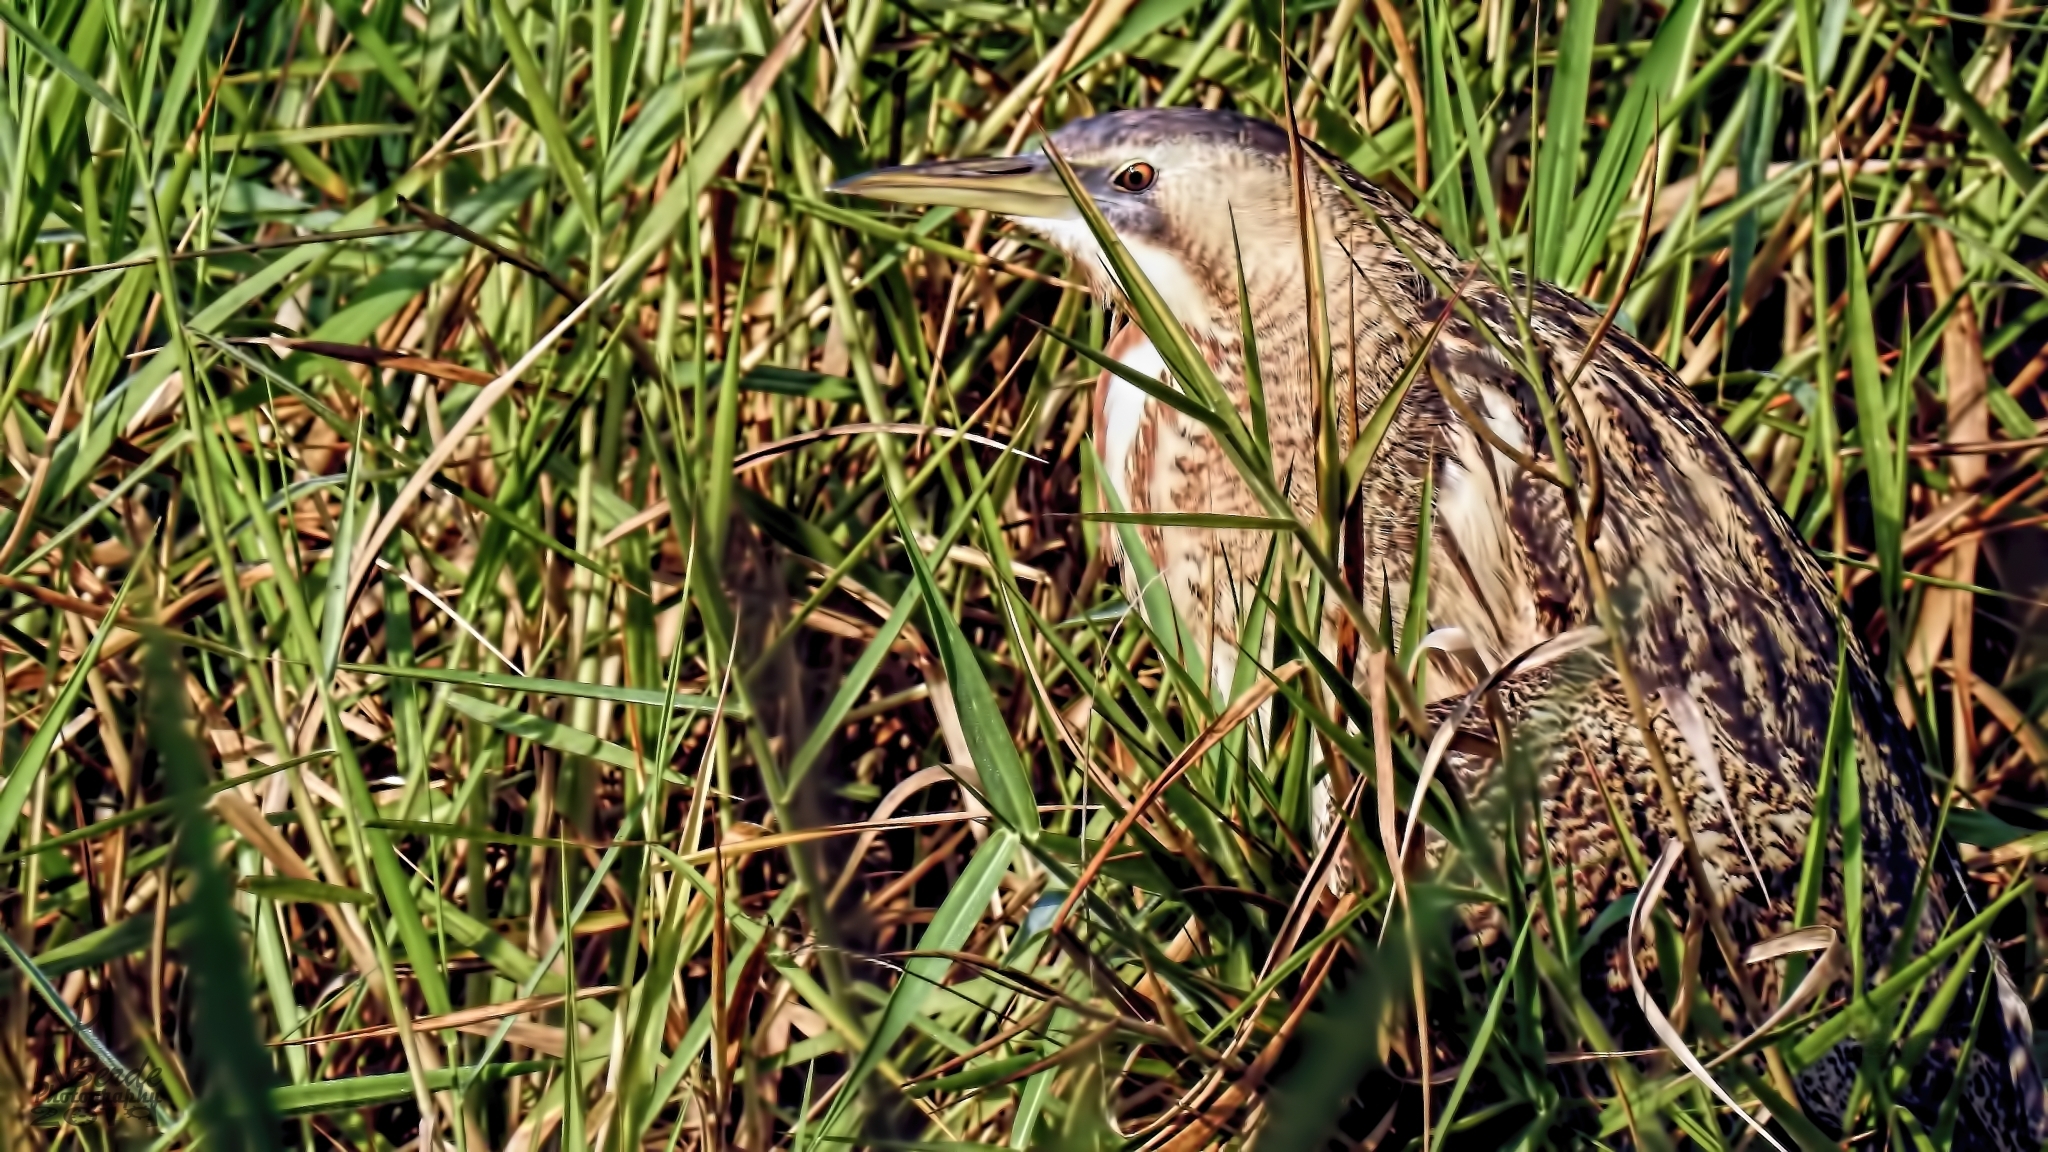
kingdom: Animalia
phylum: Chordata
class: Aves
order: Pelecaniformes
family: Ardeidae
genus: Botaurus
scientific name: Botaurus stellaris
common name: Eurasian bittern
